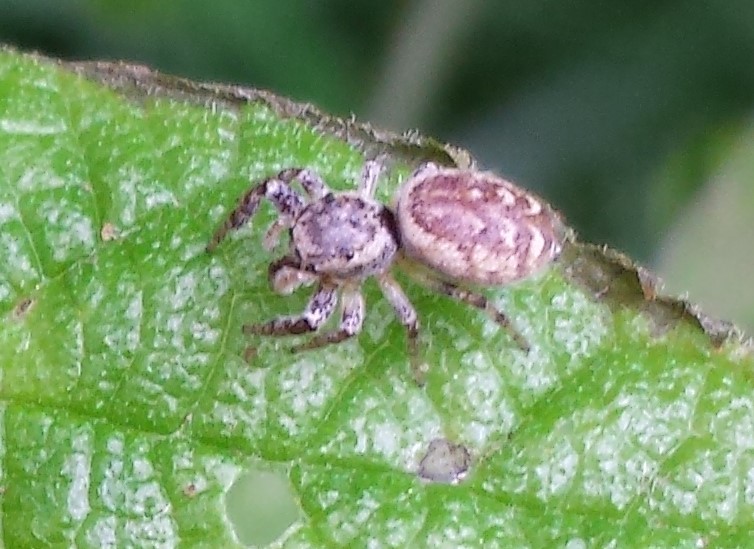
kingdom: Animalia
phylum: Arthropoda
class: Arachnida
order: Araneae
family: Salticidae
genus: Pelegrina
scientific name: Pelegrina proterva
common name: Common white-cheeked jumping spider
